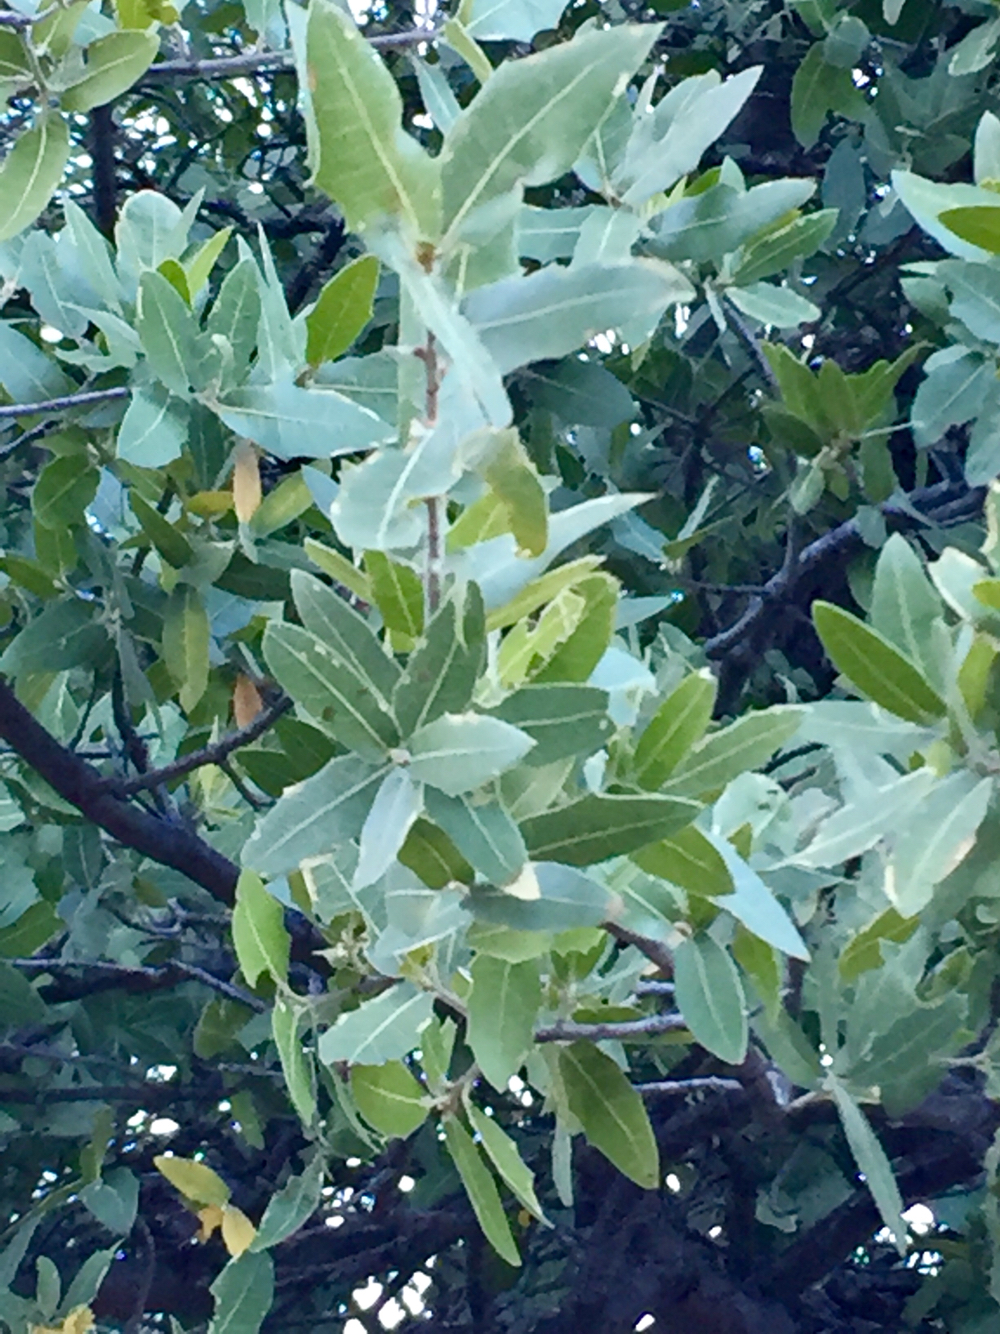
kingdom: Plantae
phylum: Tracheophyta
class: Magnoliopsida
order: Fagales
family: Fagaceae
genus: Quercus
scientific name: Quercus emoryi
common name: Emory oak
